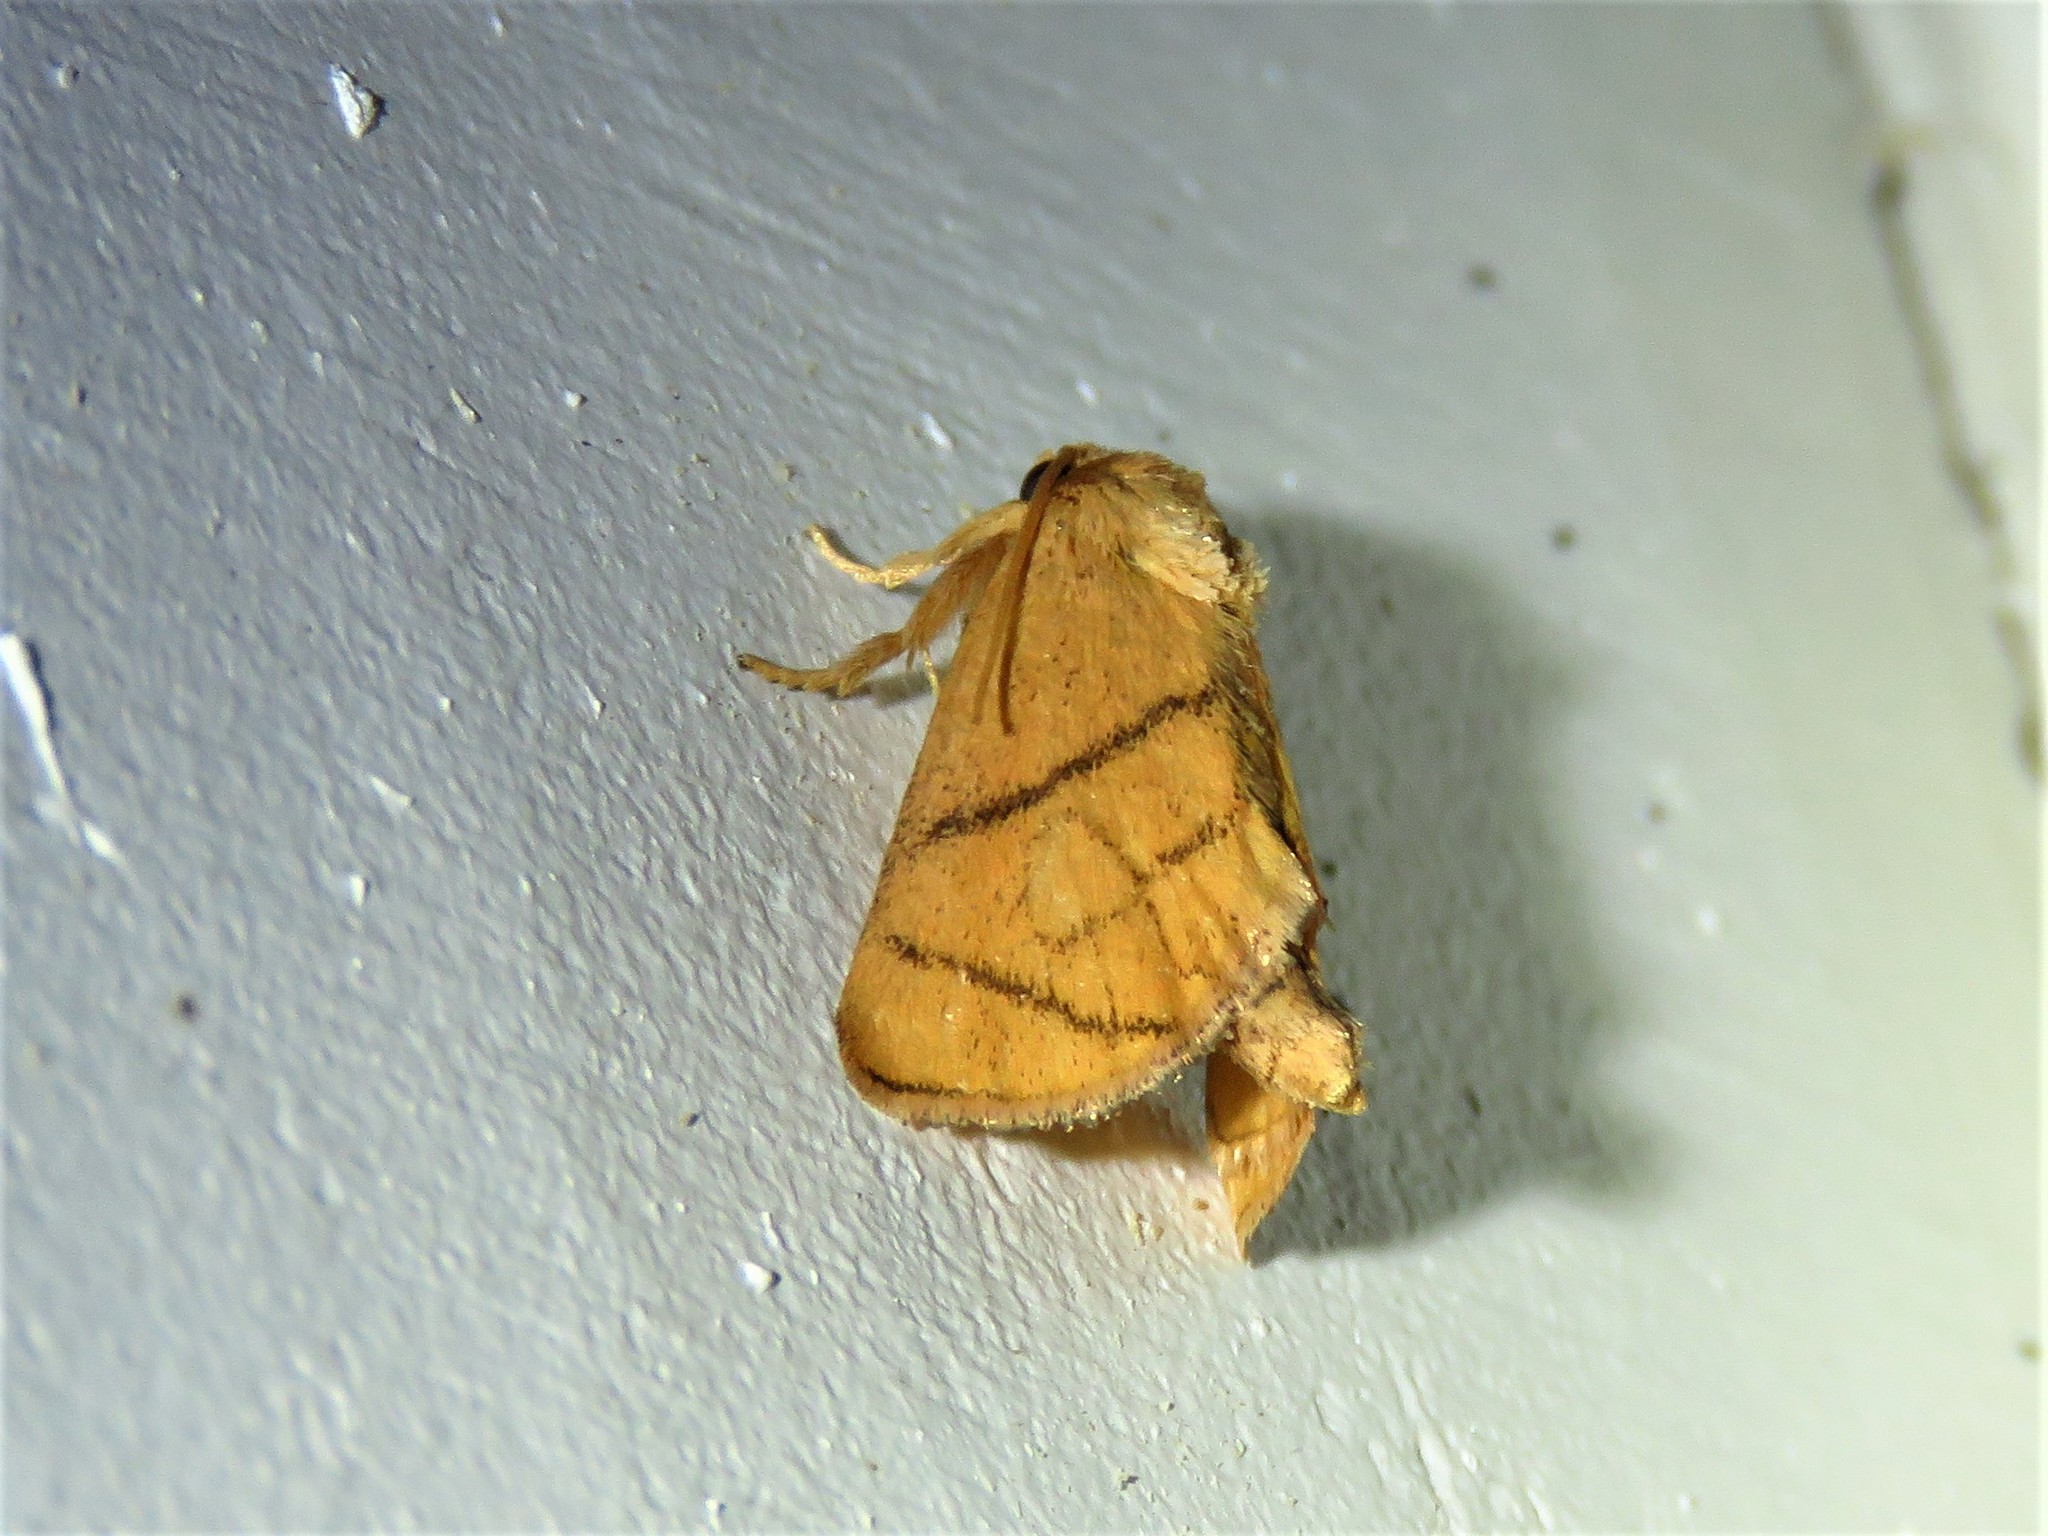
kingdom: Animalia
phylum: Arthropoda
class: Insecta
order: Lepidoptera
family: Limacodidae
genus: Apoda
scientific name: Apoda y-inversa
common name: Yellow-collared slug moth
